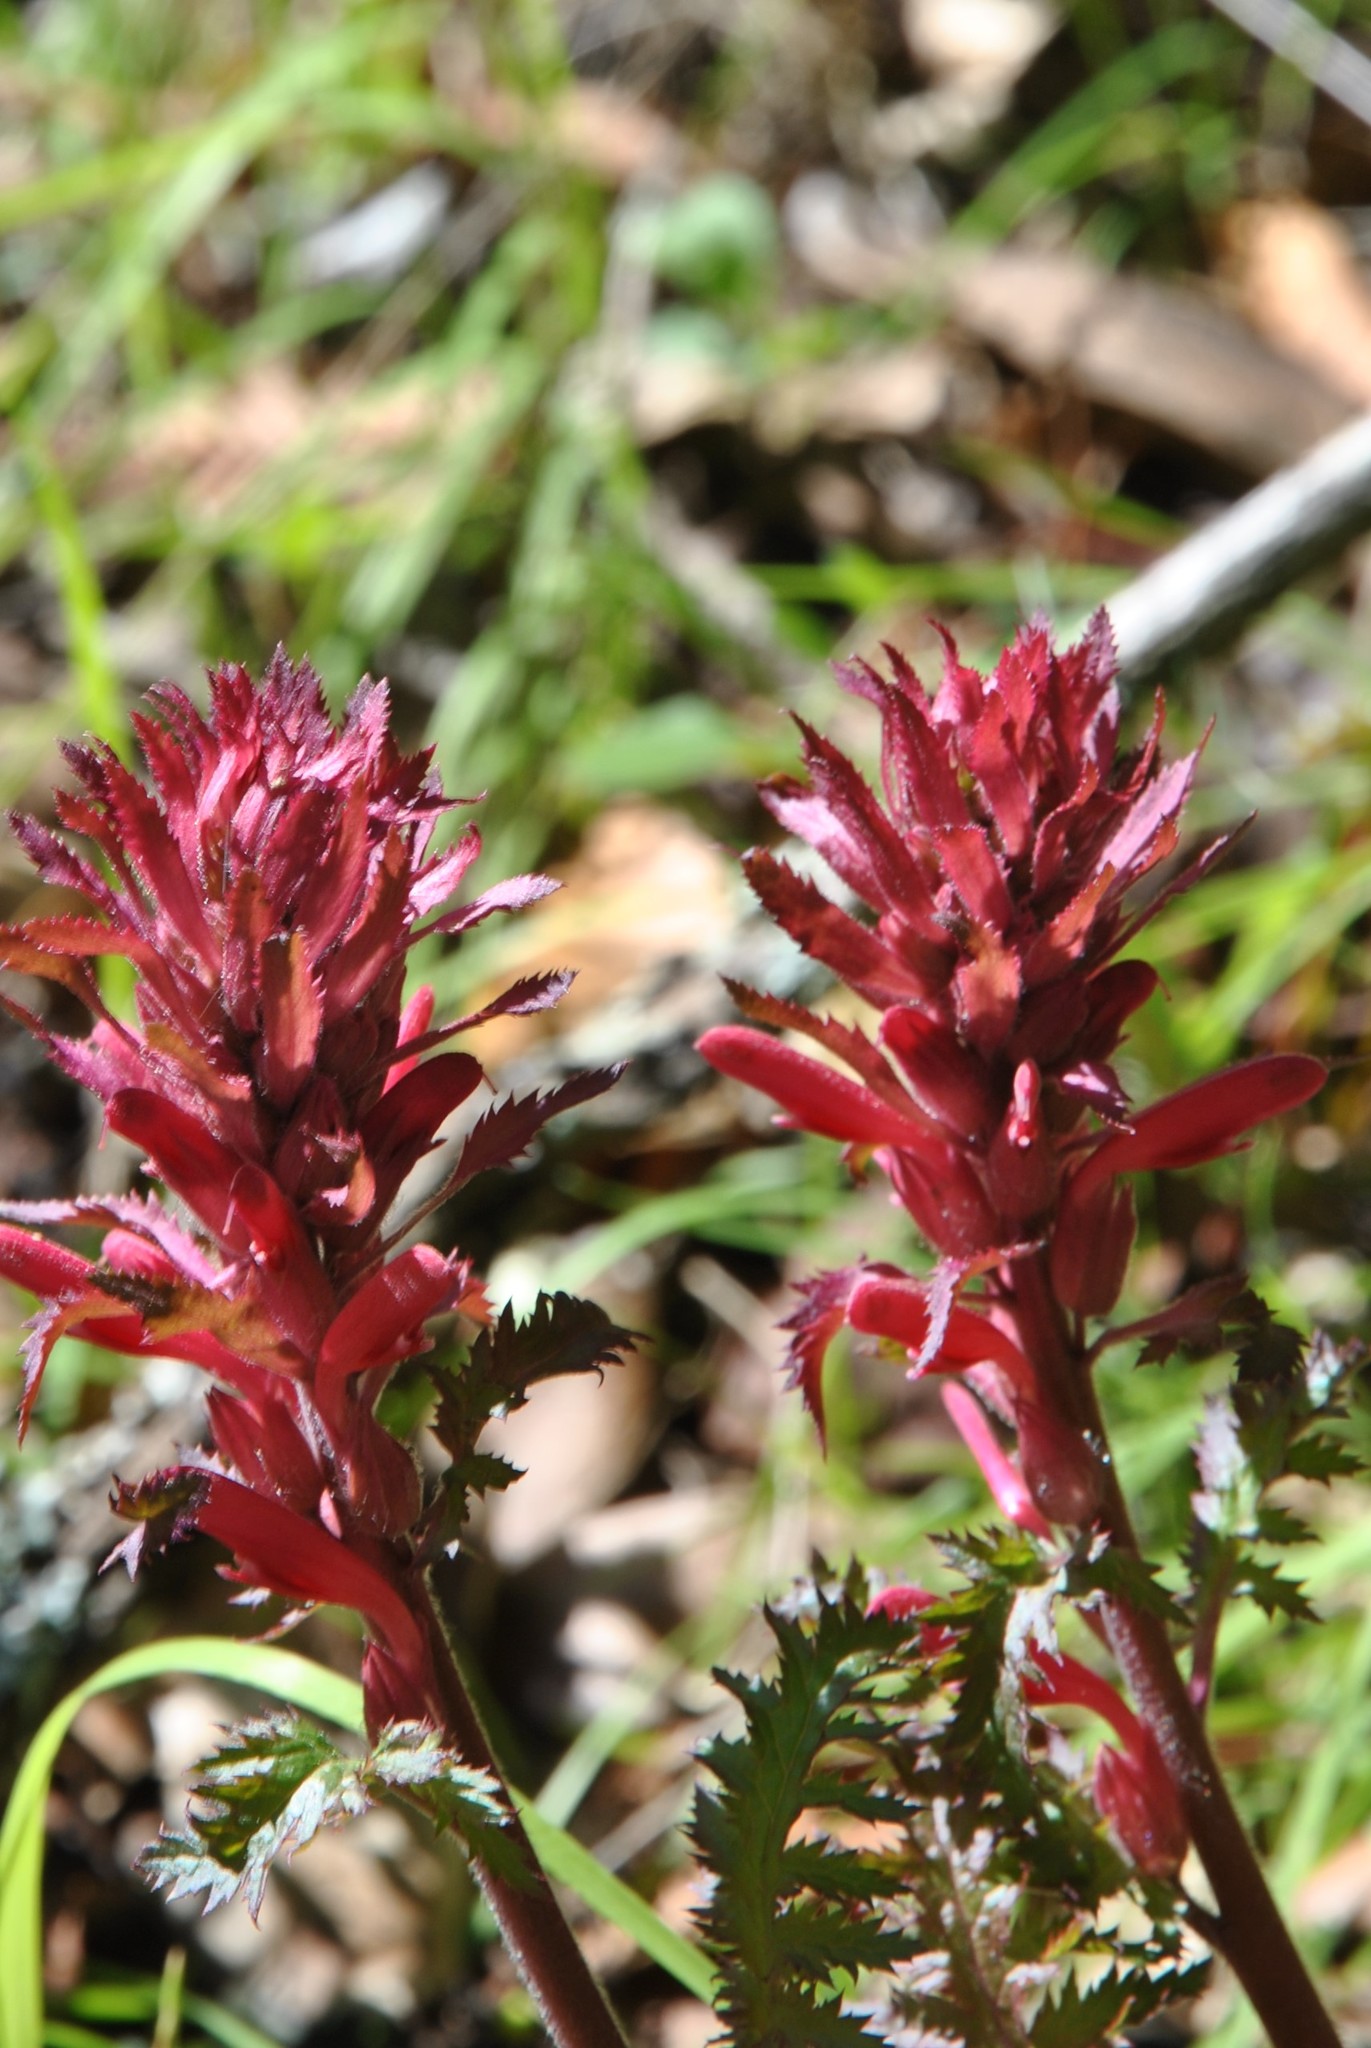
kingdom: Plantae
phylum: Tracheophyta
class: Magnoliopsida
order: Lamiales
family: Orobanchaceae
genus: Pedicularis
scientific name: Pedicularis densiflora
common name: Indian warrior
